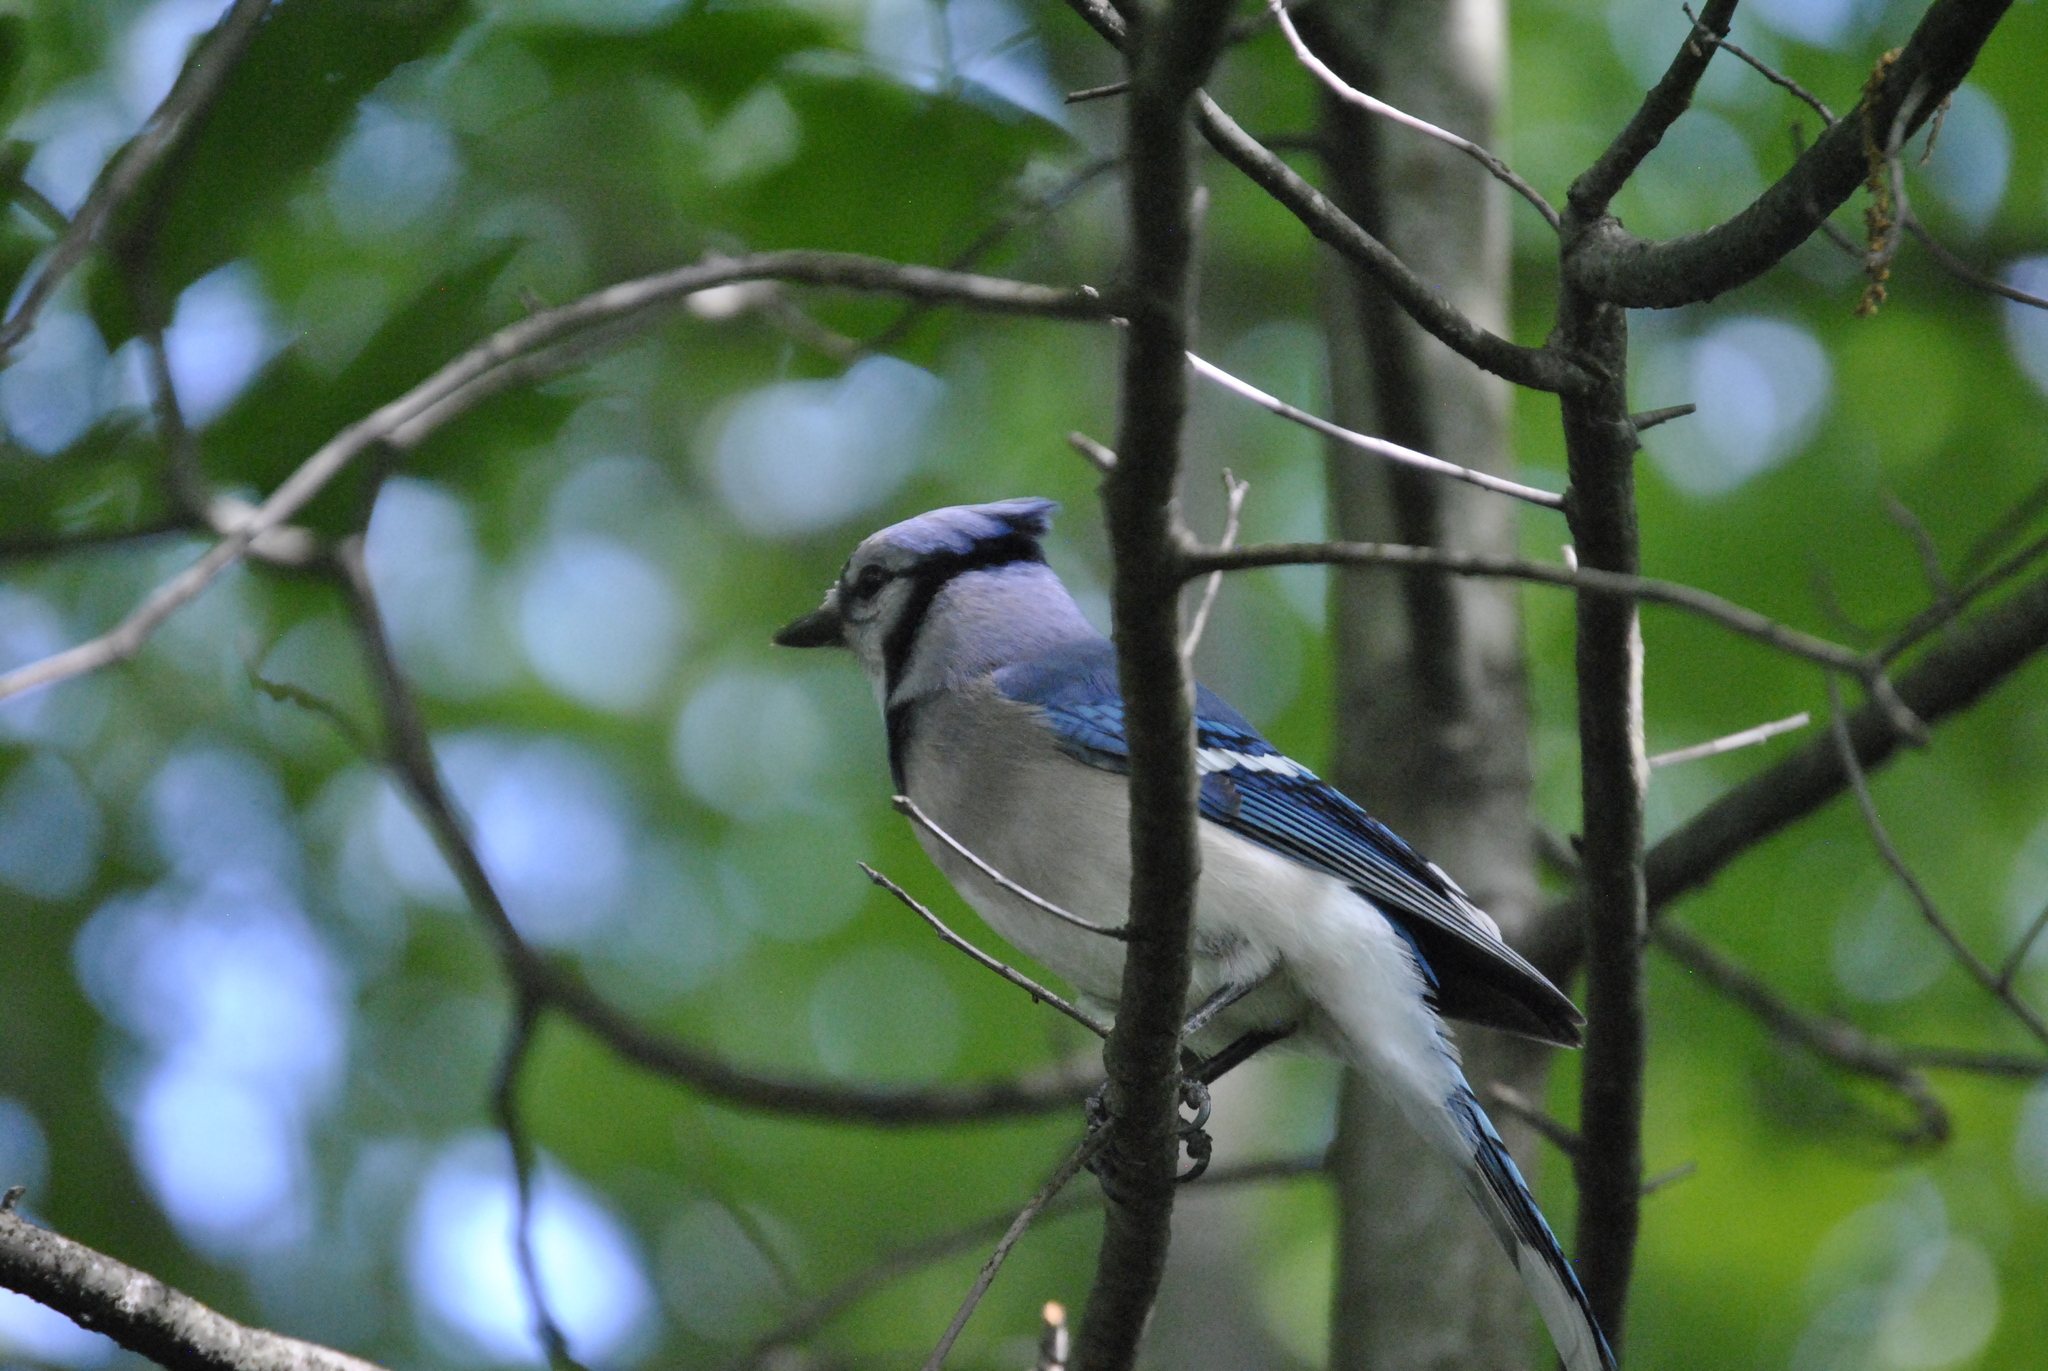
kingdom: Animalia
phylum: Chordata
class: Aves
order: Passeriformes
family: Corvidae
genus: Cyanocitta
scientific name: Cyanocitta cristata
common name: Blue jay
